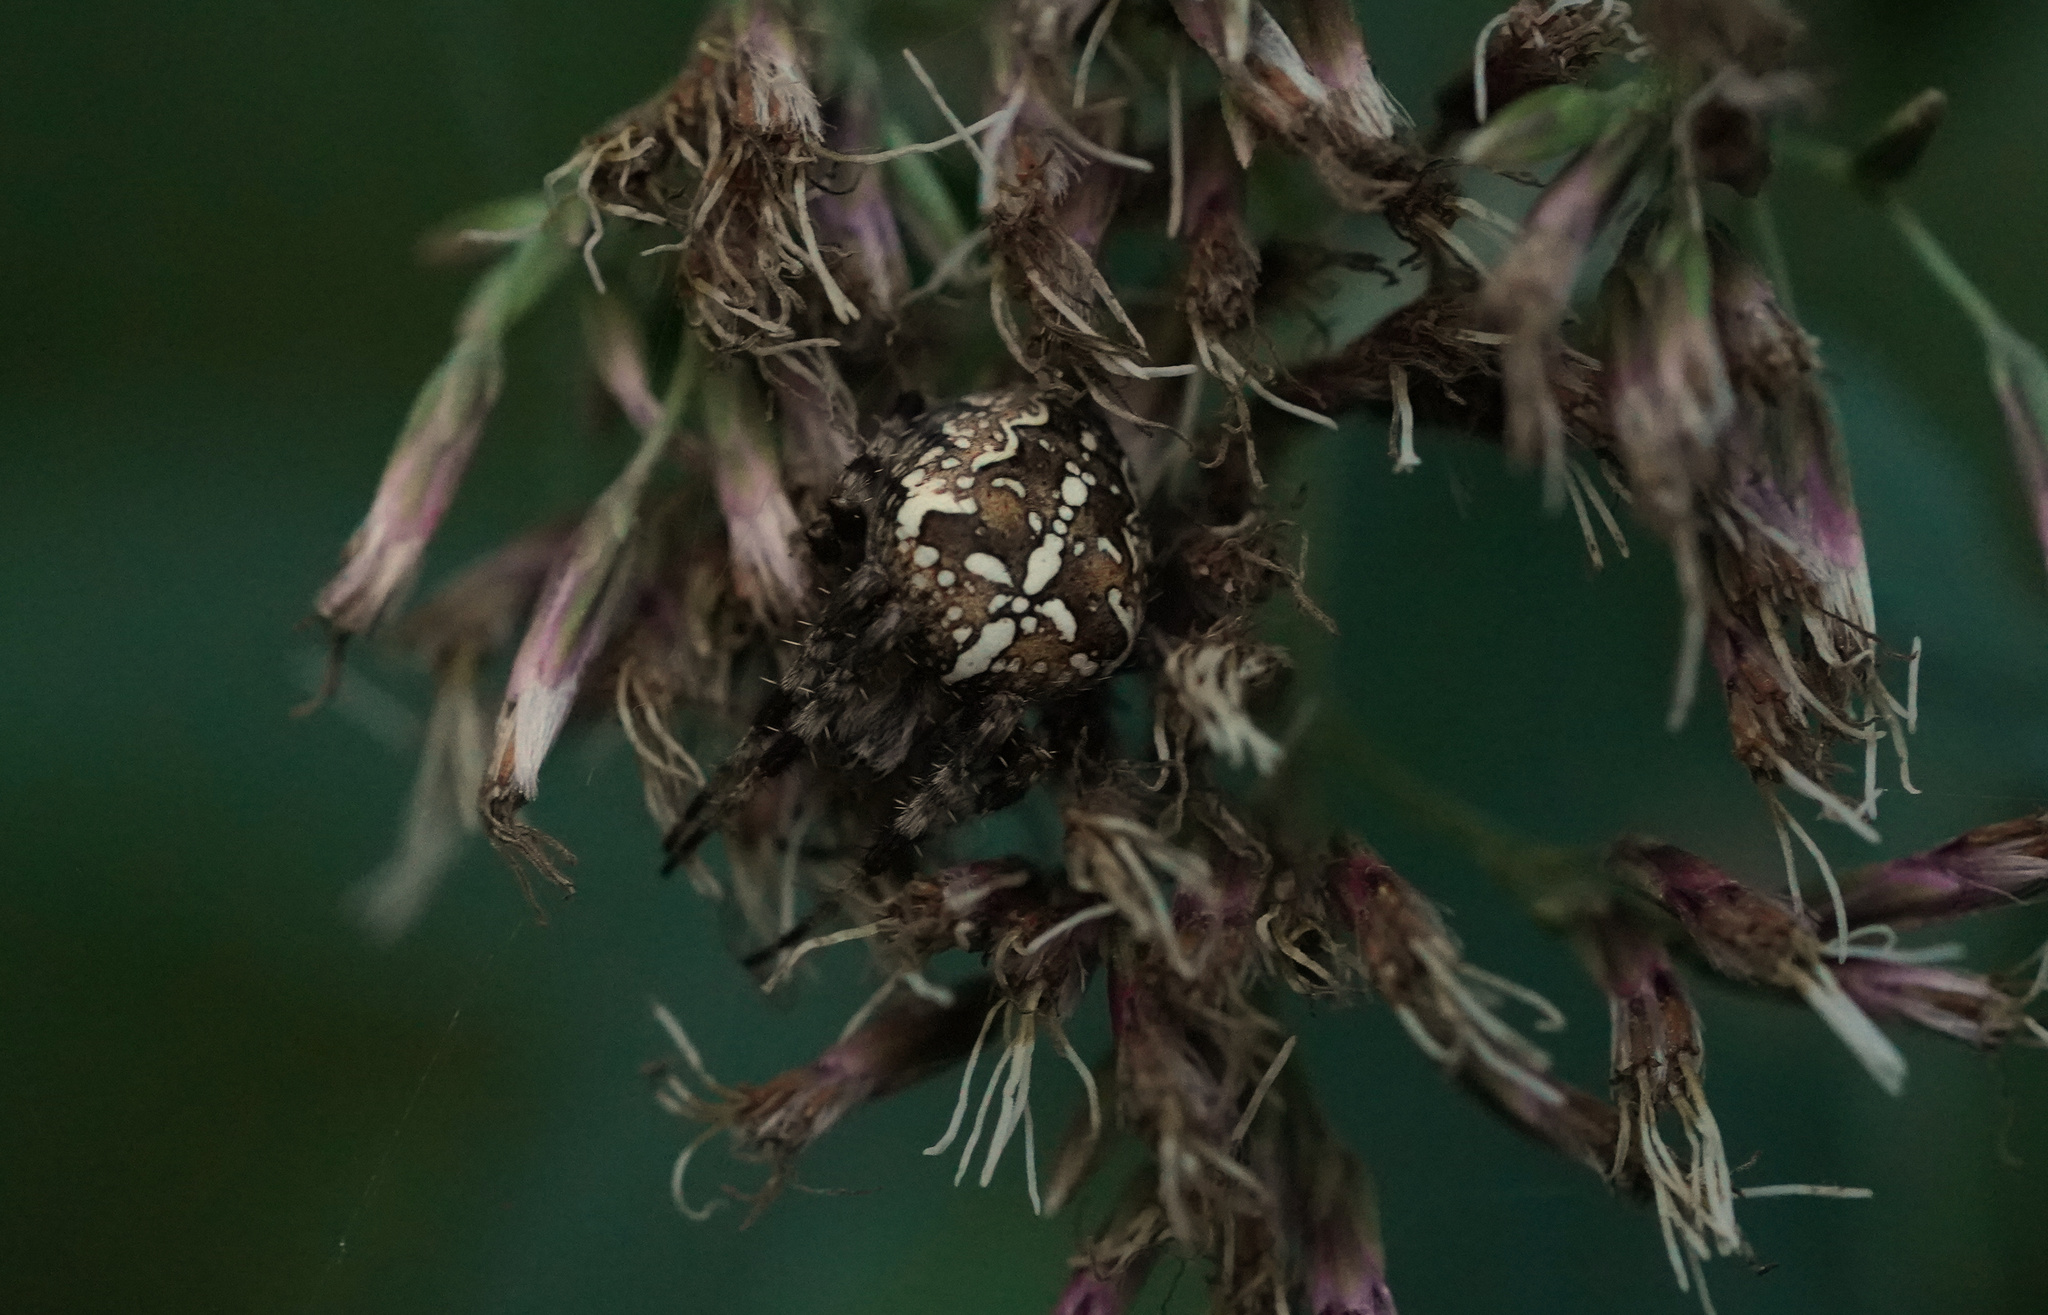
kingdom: Animalia
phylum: Arthropoda
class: Arachnida
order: Araneae
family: Araneidae
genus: Araneus
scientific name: Araneus diadematus
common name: Cross orbweaver
